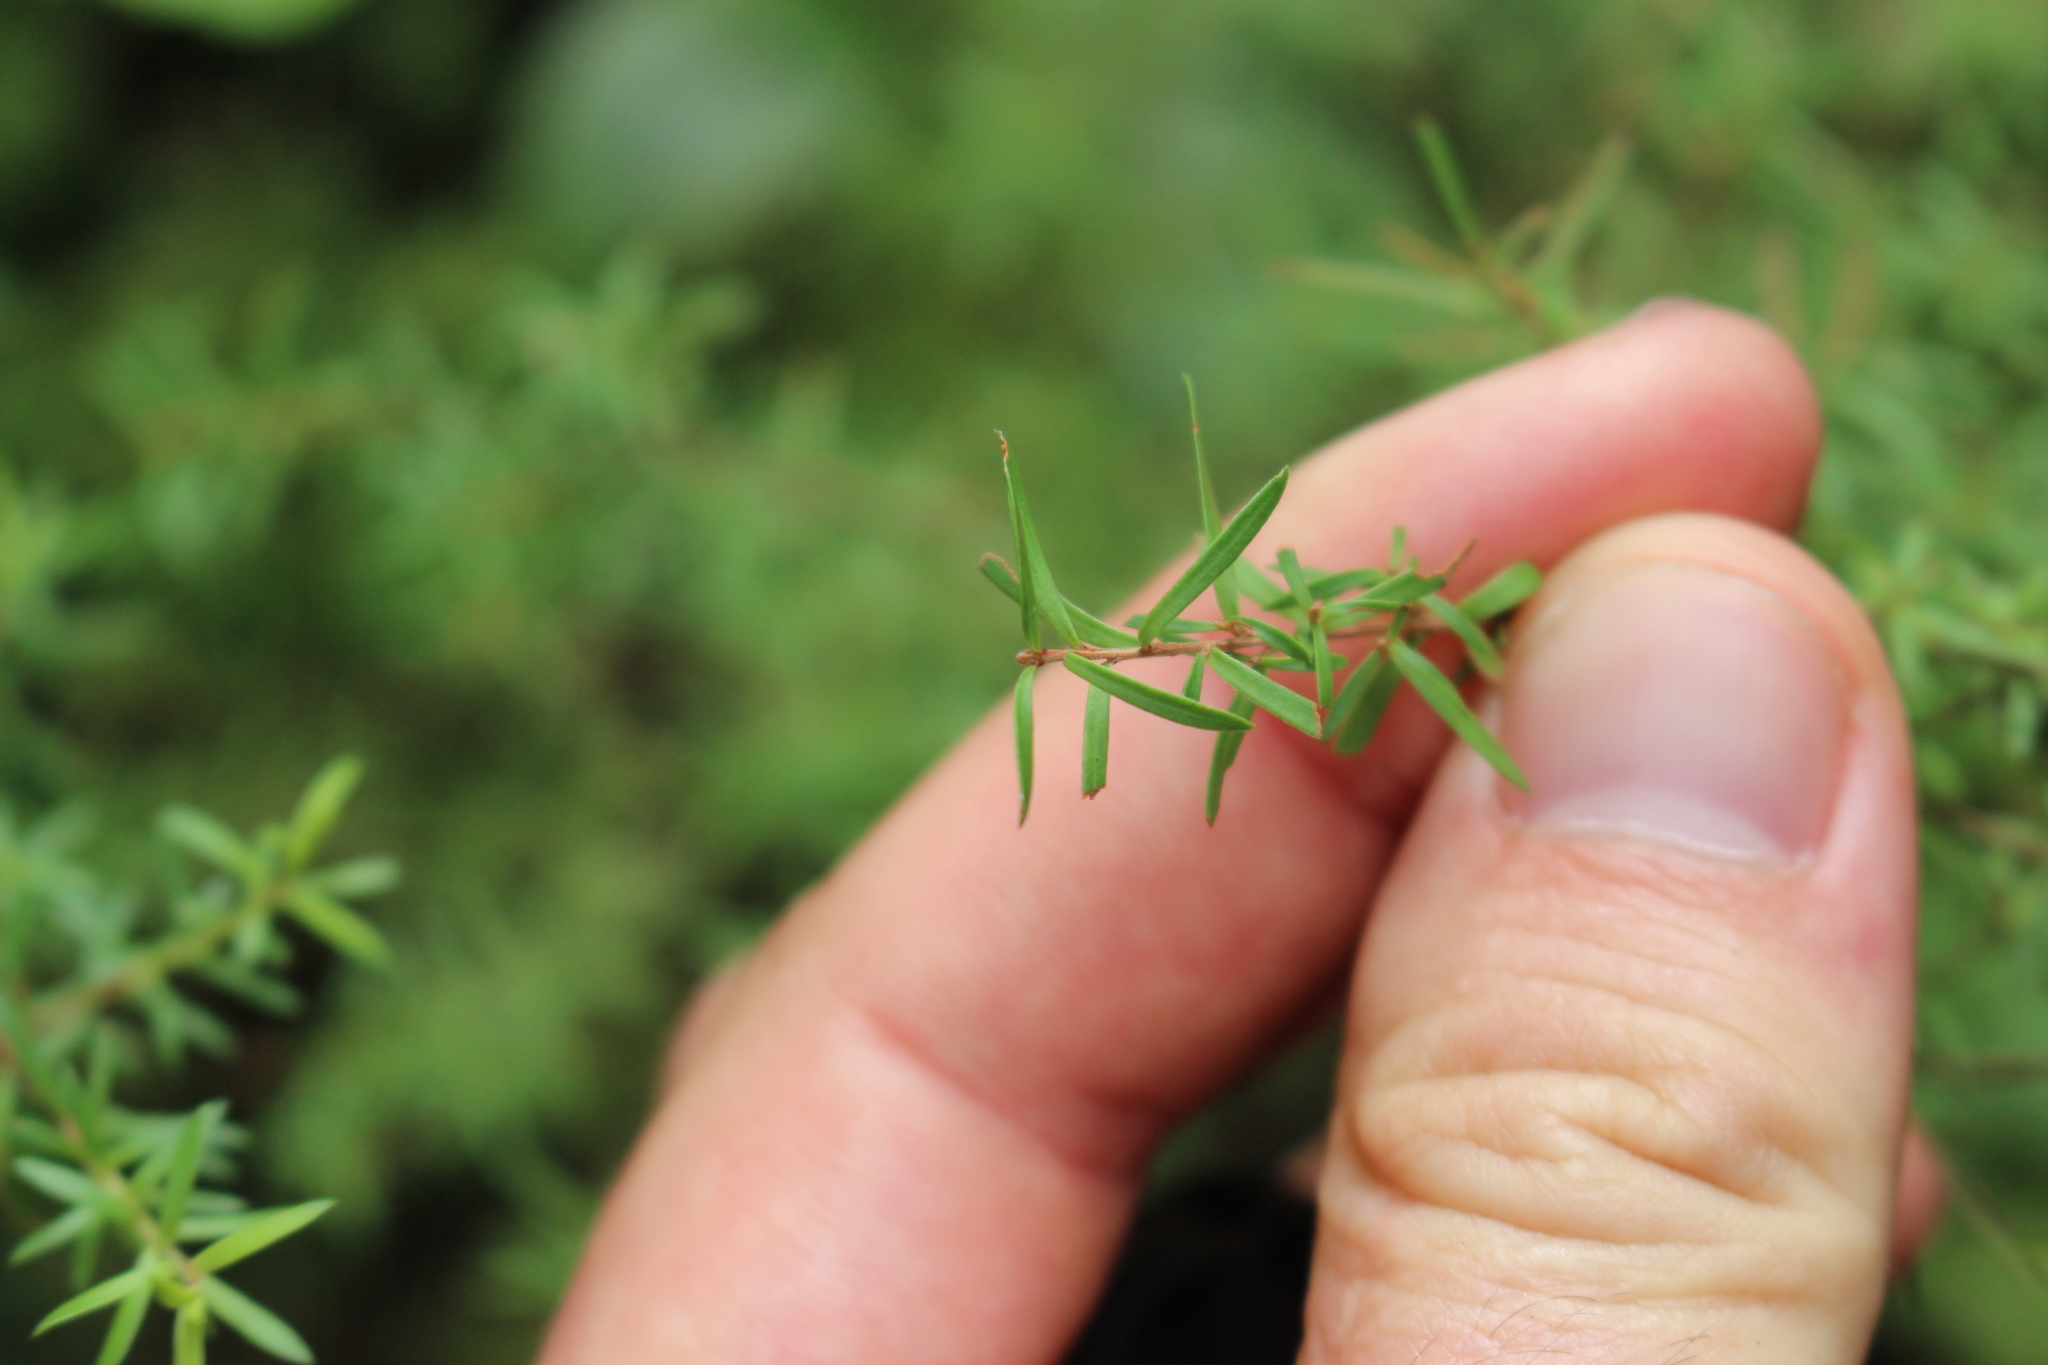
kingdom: Plantae
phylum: Tracheophyta
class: Magnoliopsida
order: Ericales
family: Ericaceae
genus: Leucopogon
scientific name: Leucopogon fasciculatus
